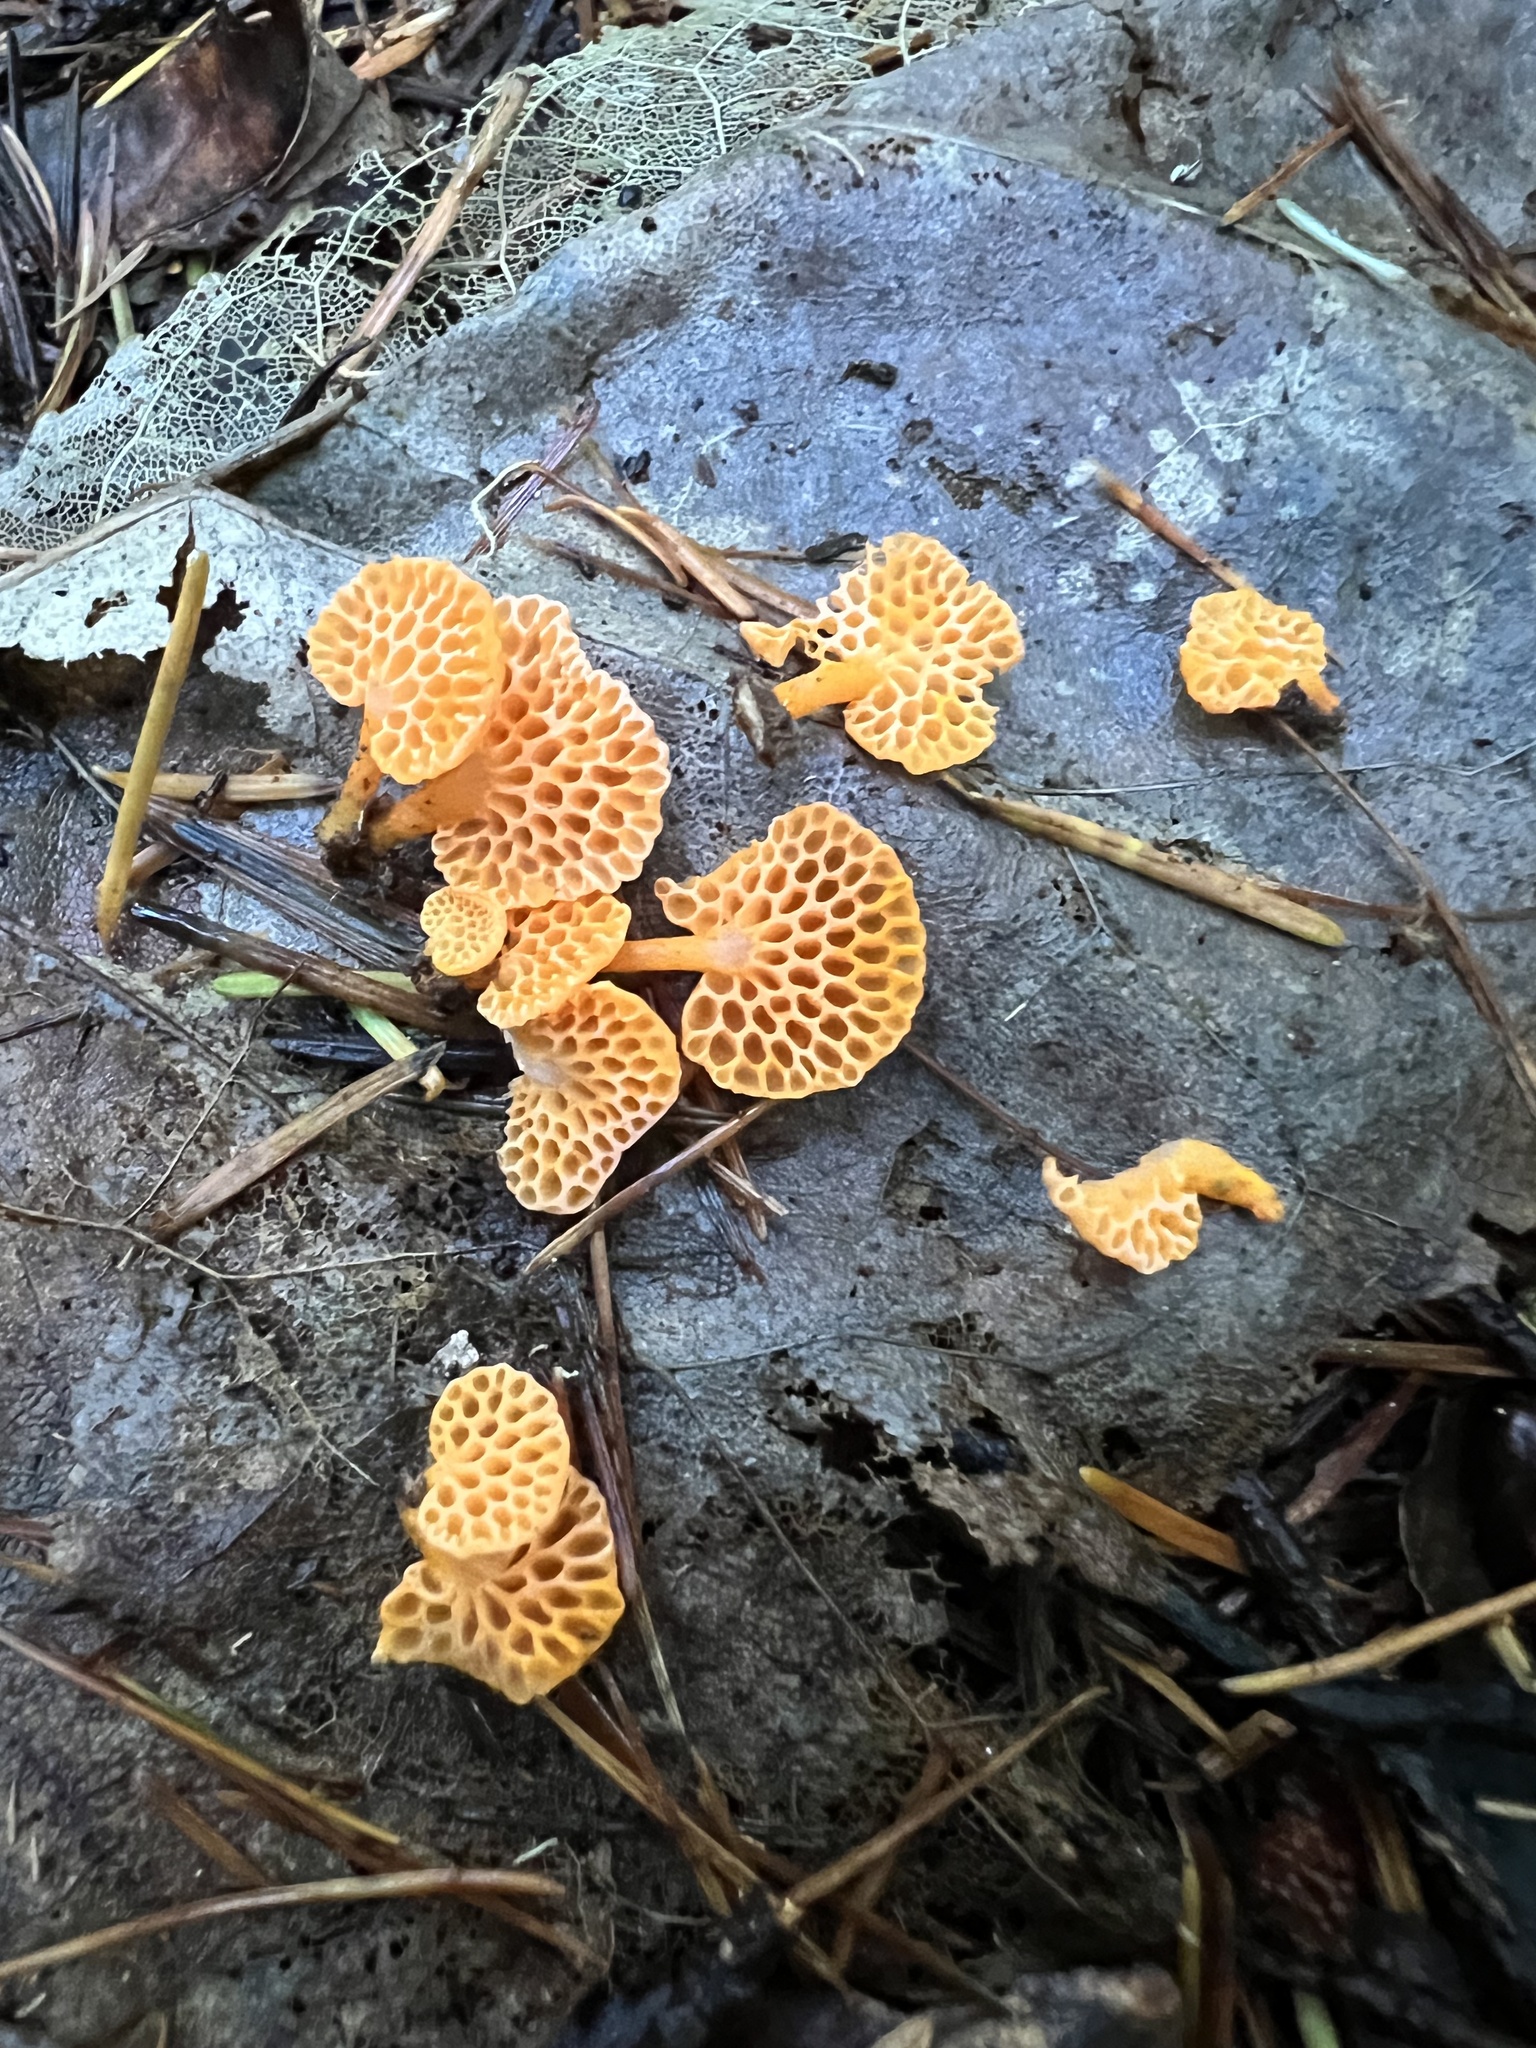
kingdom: Fungi
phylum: Basidiomycota
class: Agaricomycetes
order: Agaricales
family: Mycenaceae
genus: Favolaschia
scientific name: Favolaschia claudopus
